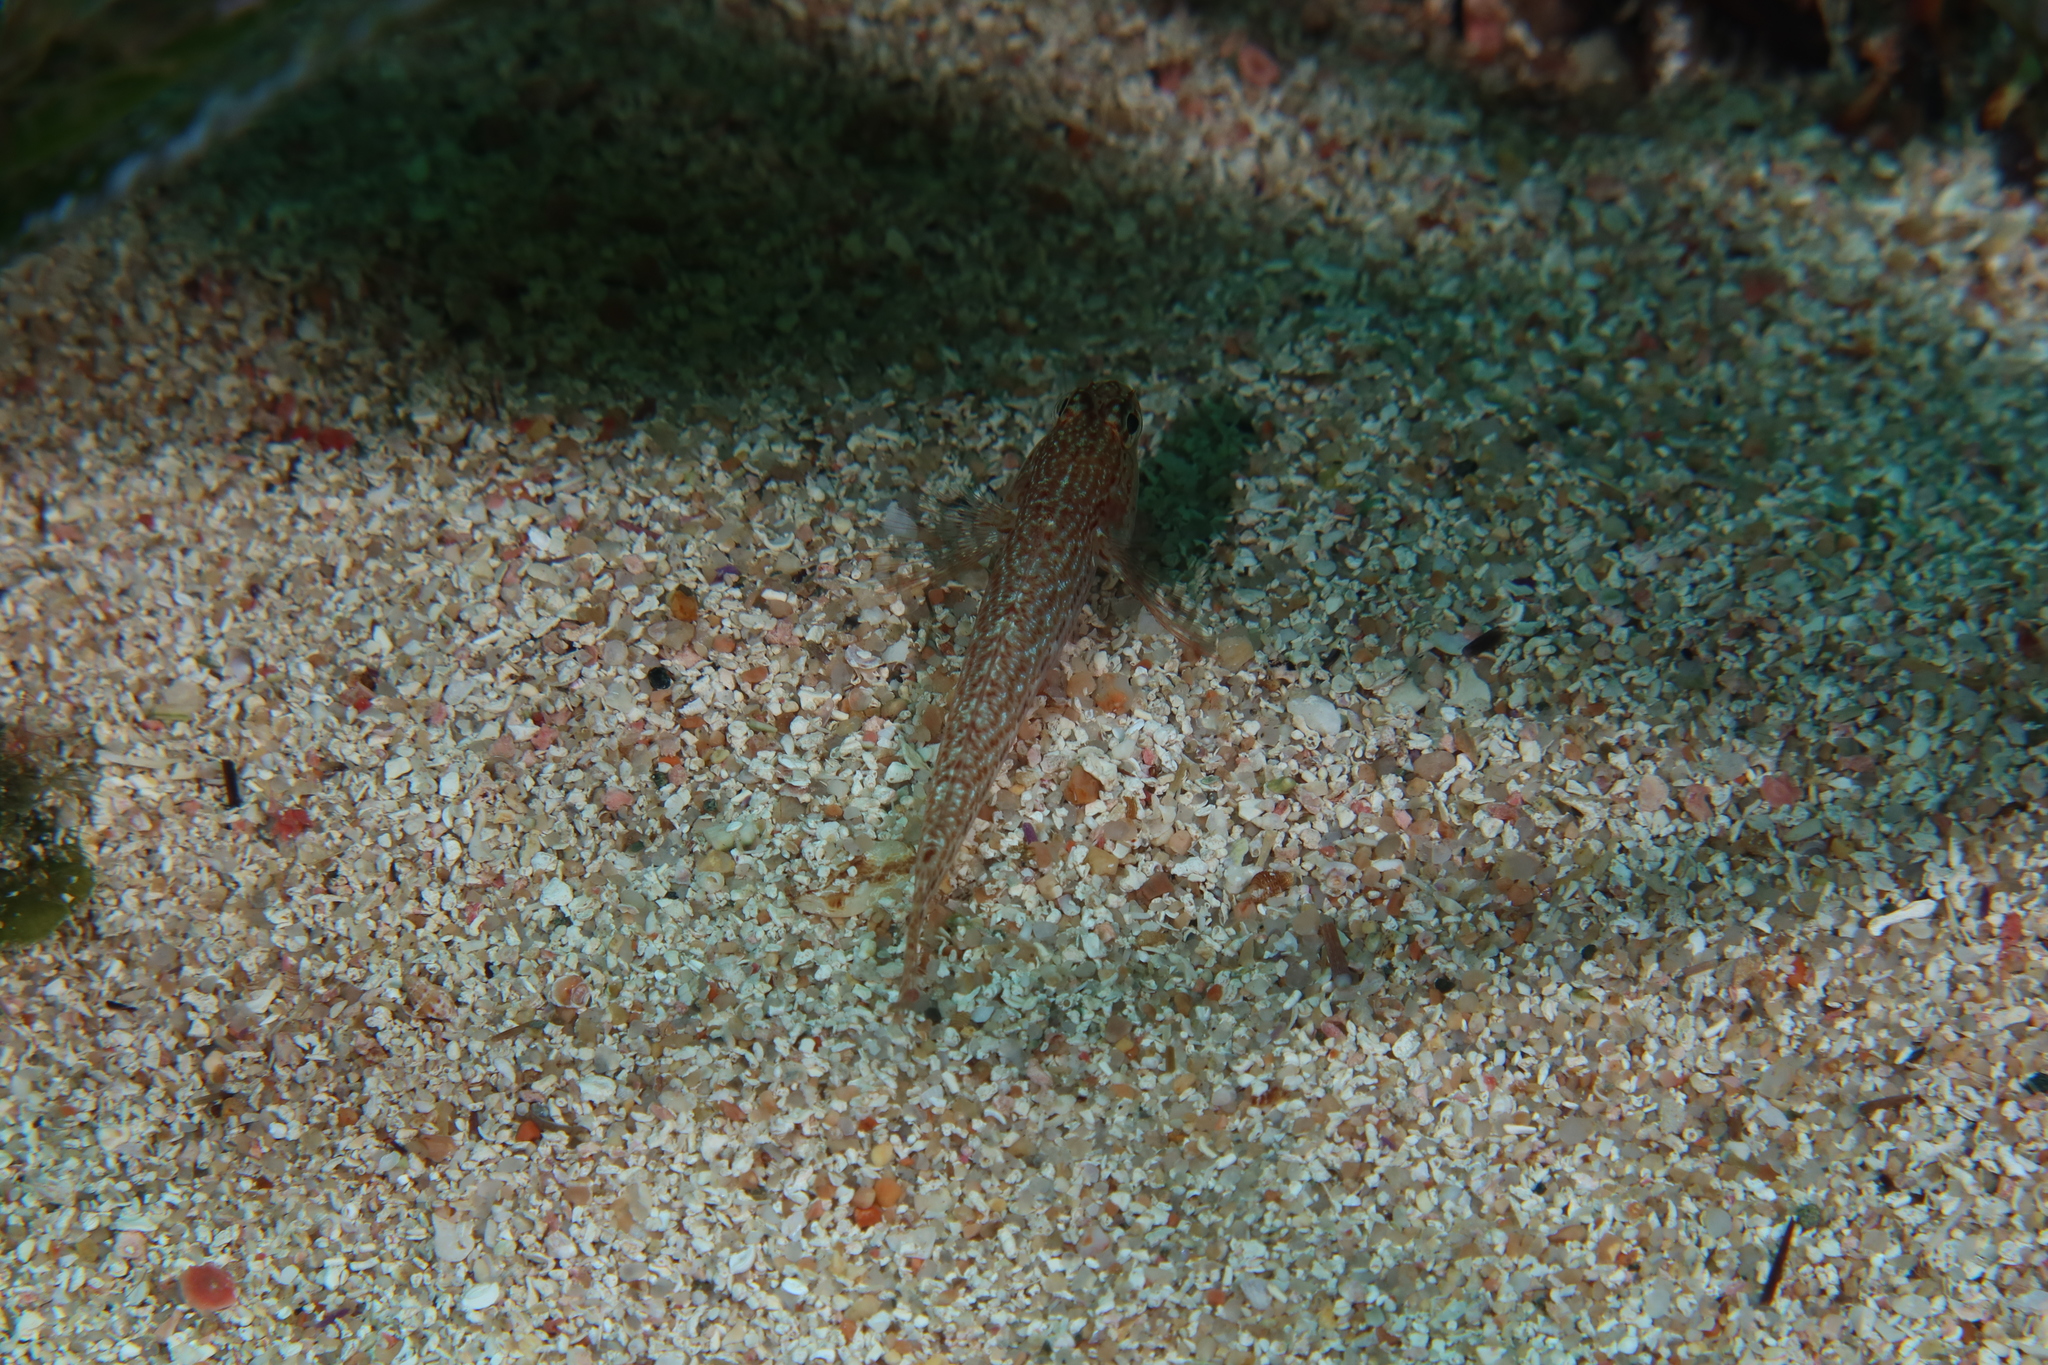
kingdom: Animalia
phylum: Chordata
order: Perciformes
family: Gobiidae
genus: Gobius
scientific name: Gobius fallax
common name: Sarato's goby
